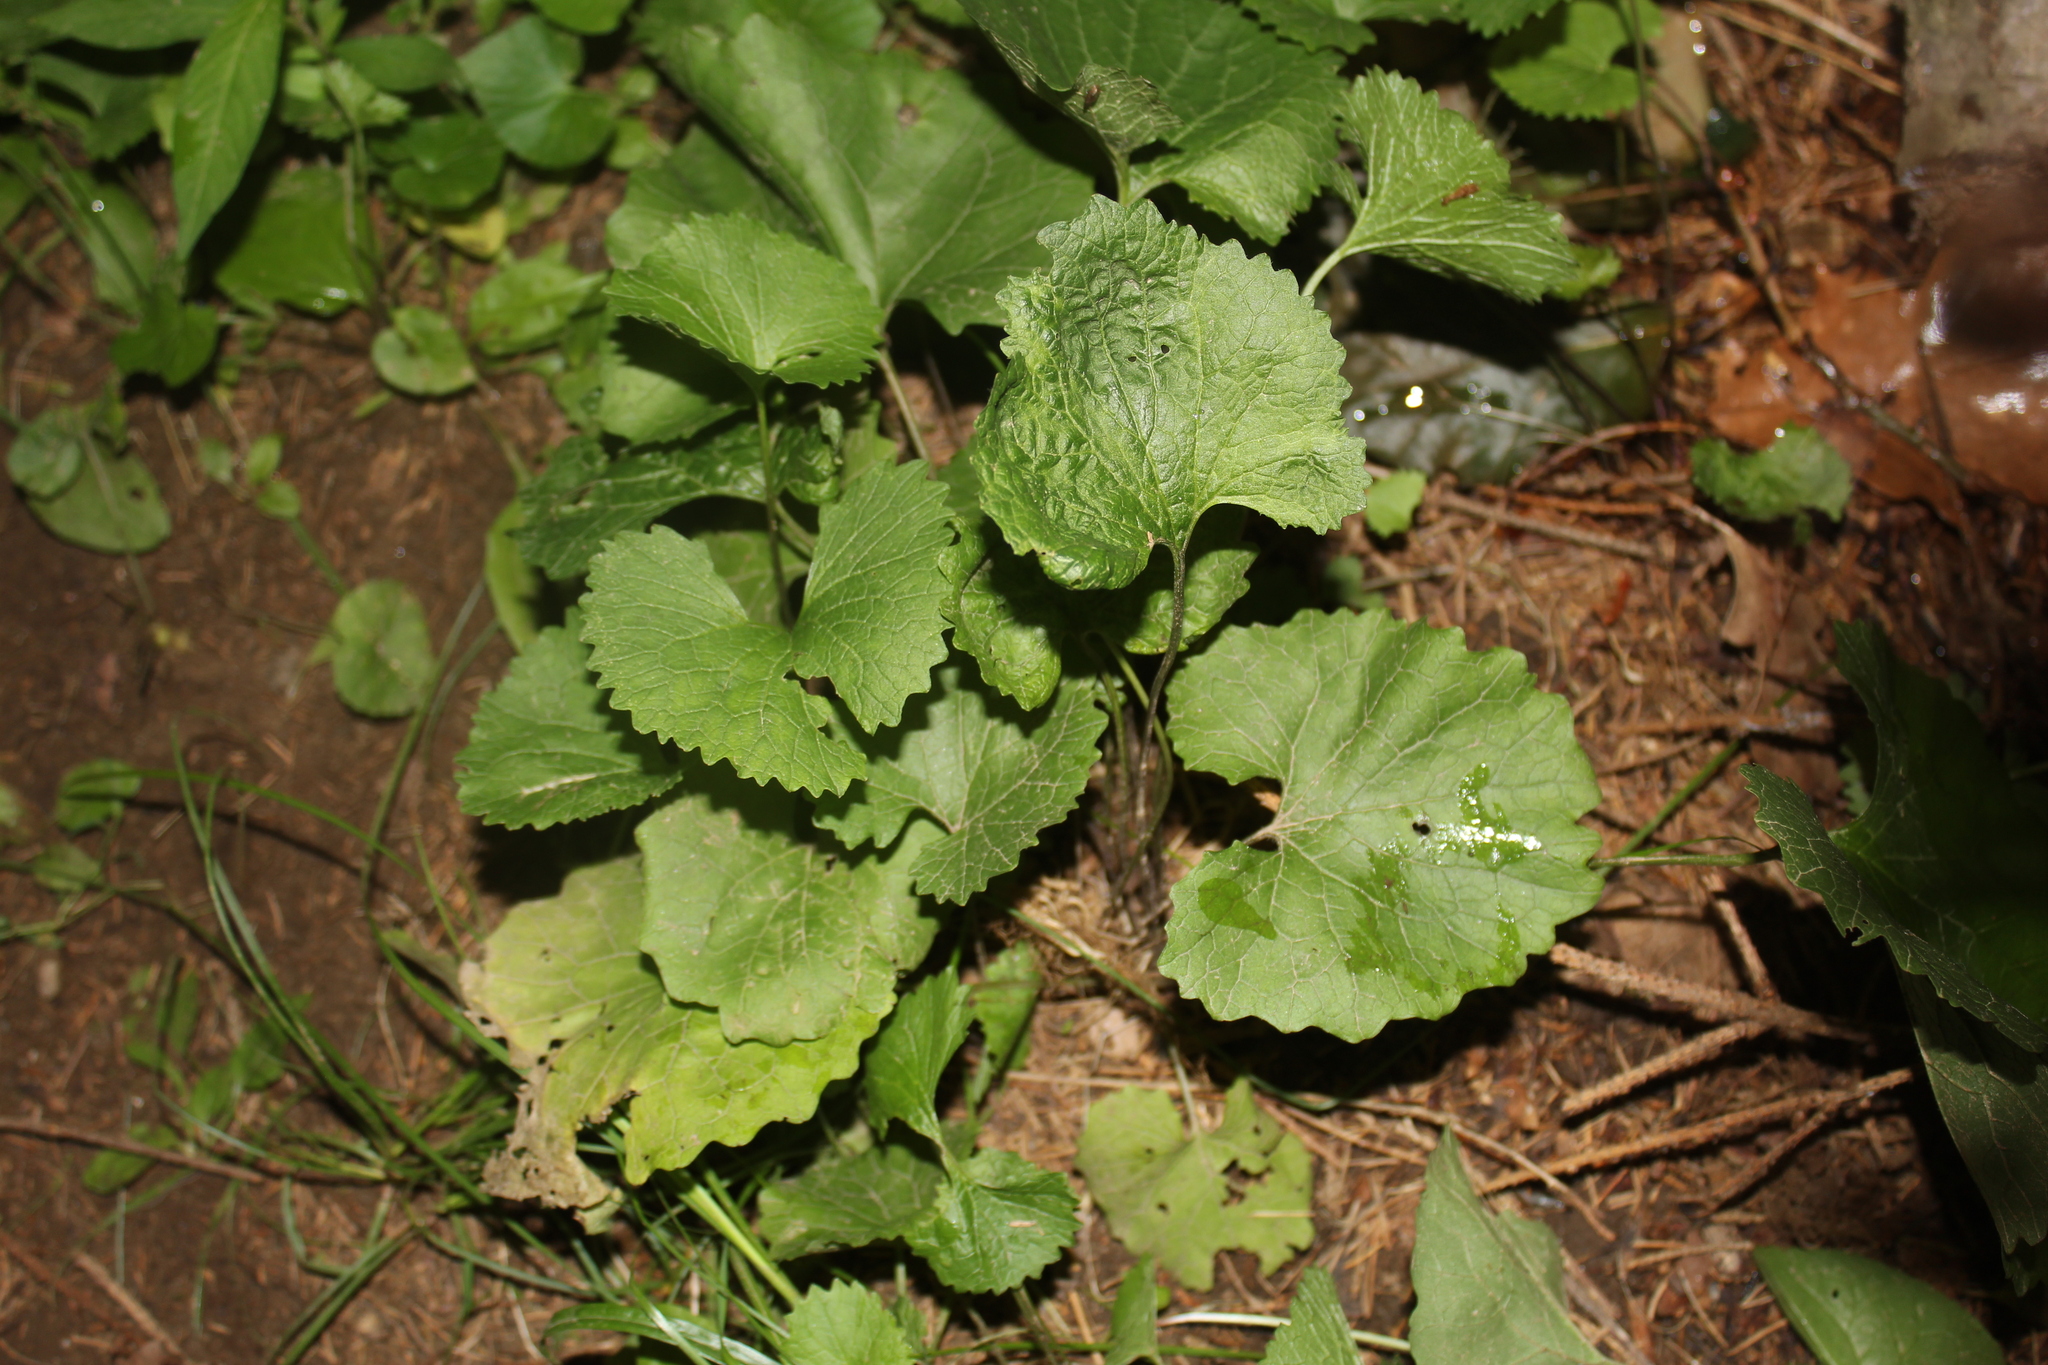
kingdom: Plantae
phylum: Tracheophyta
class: Magnoliopsida
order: Brassicales
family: Brassicaceae
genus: Alliaria
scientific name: Alliaria petiolata
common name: Garlic mustard
